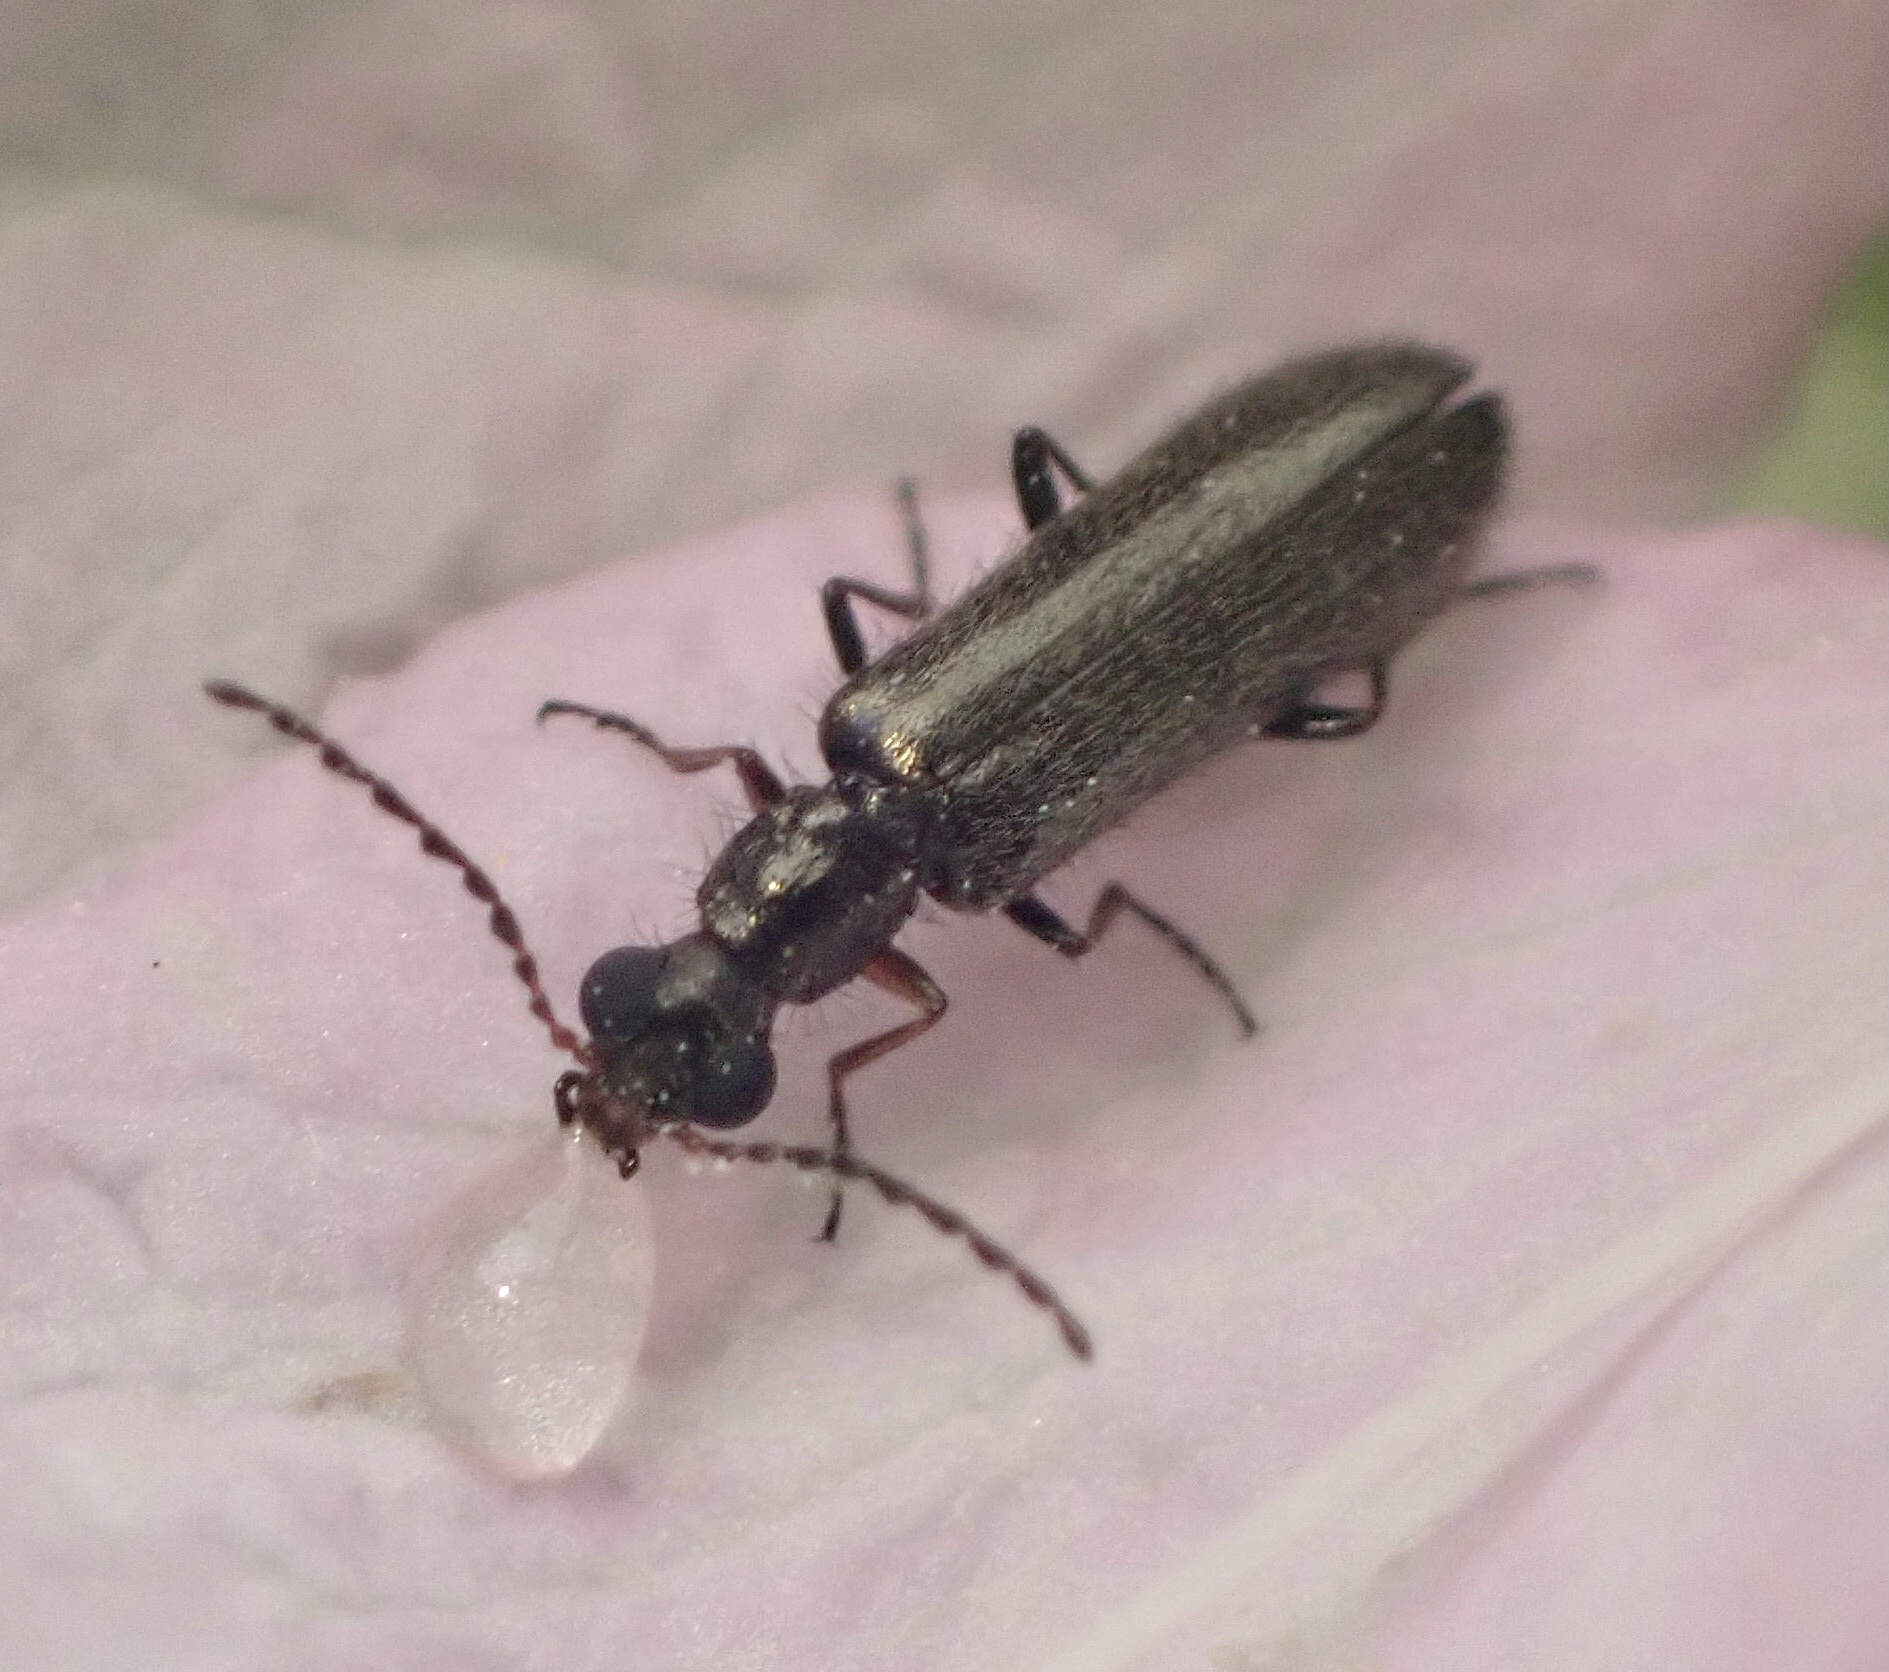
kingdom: Animalia
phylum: Arthropoda
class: Insecta
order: Coleoptera
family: Melyridae
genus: Dasytes
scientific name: Dasytes plumbeus
